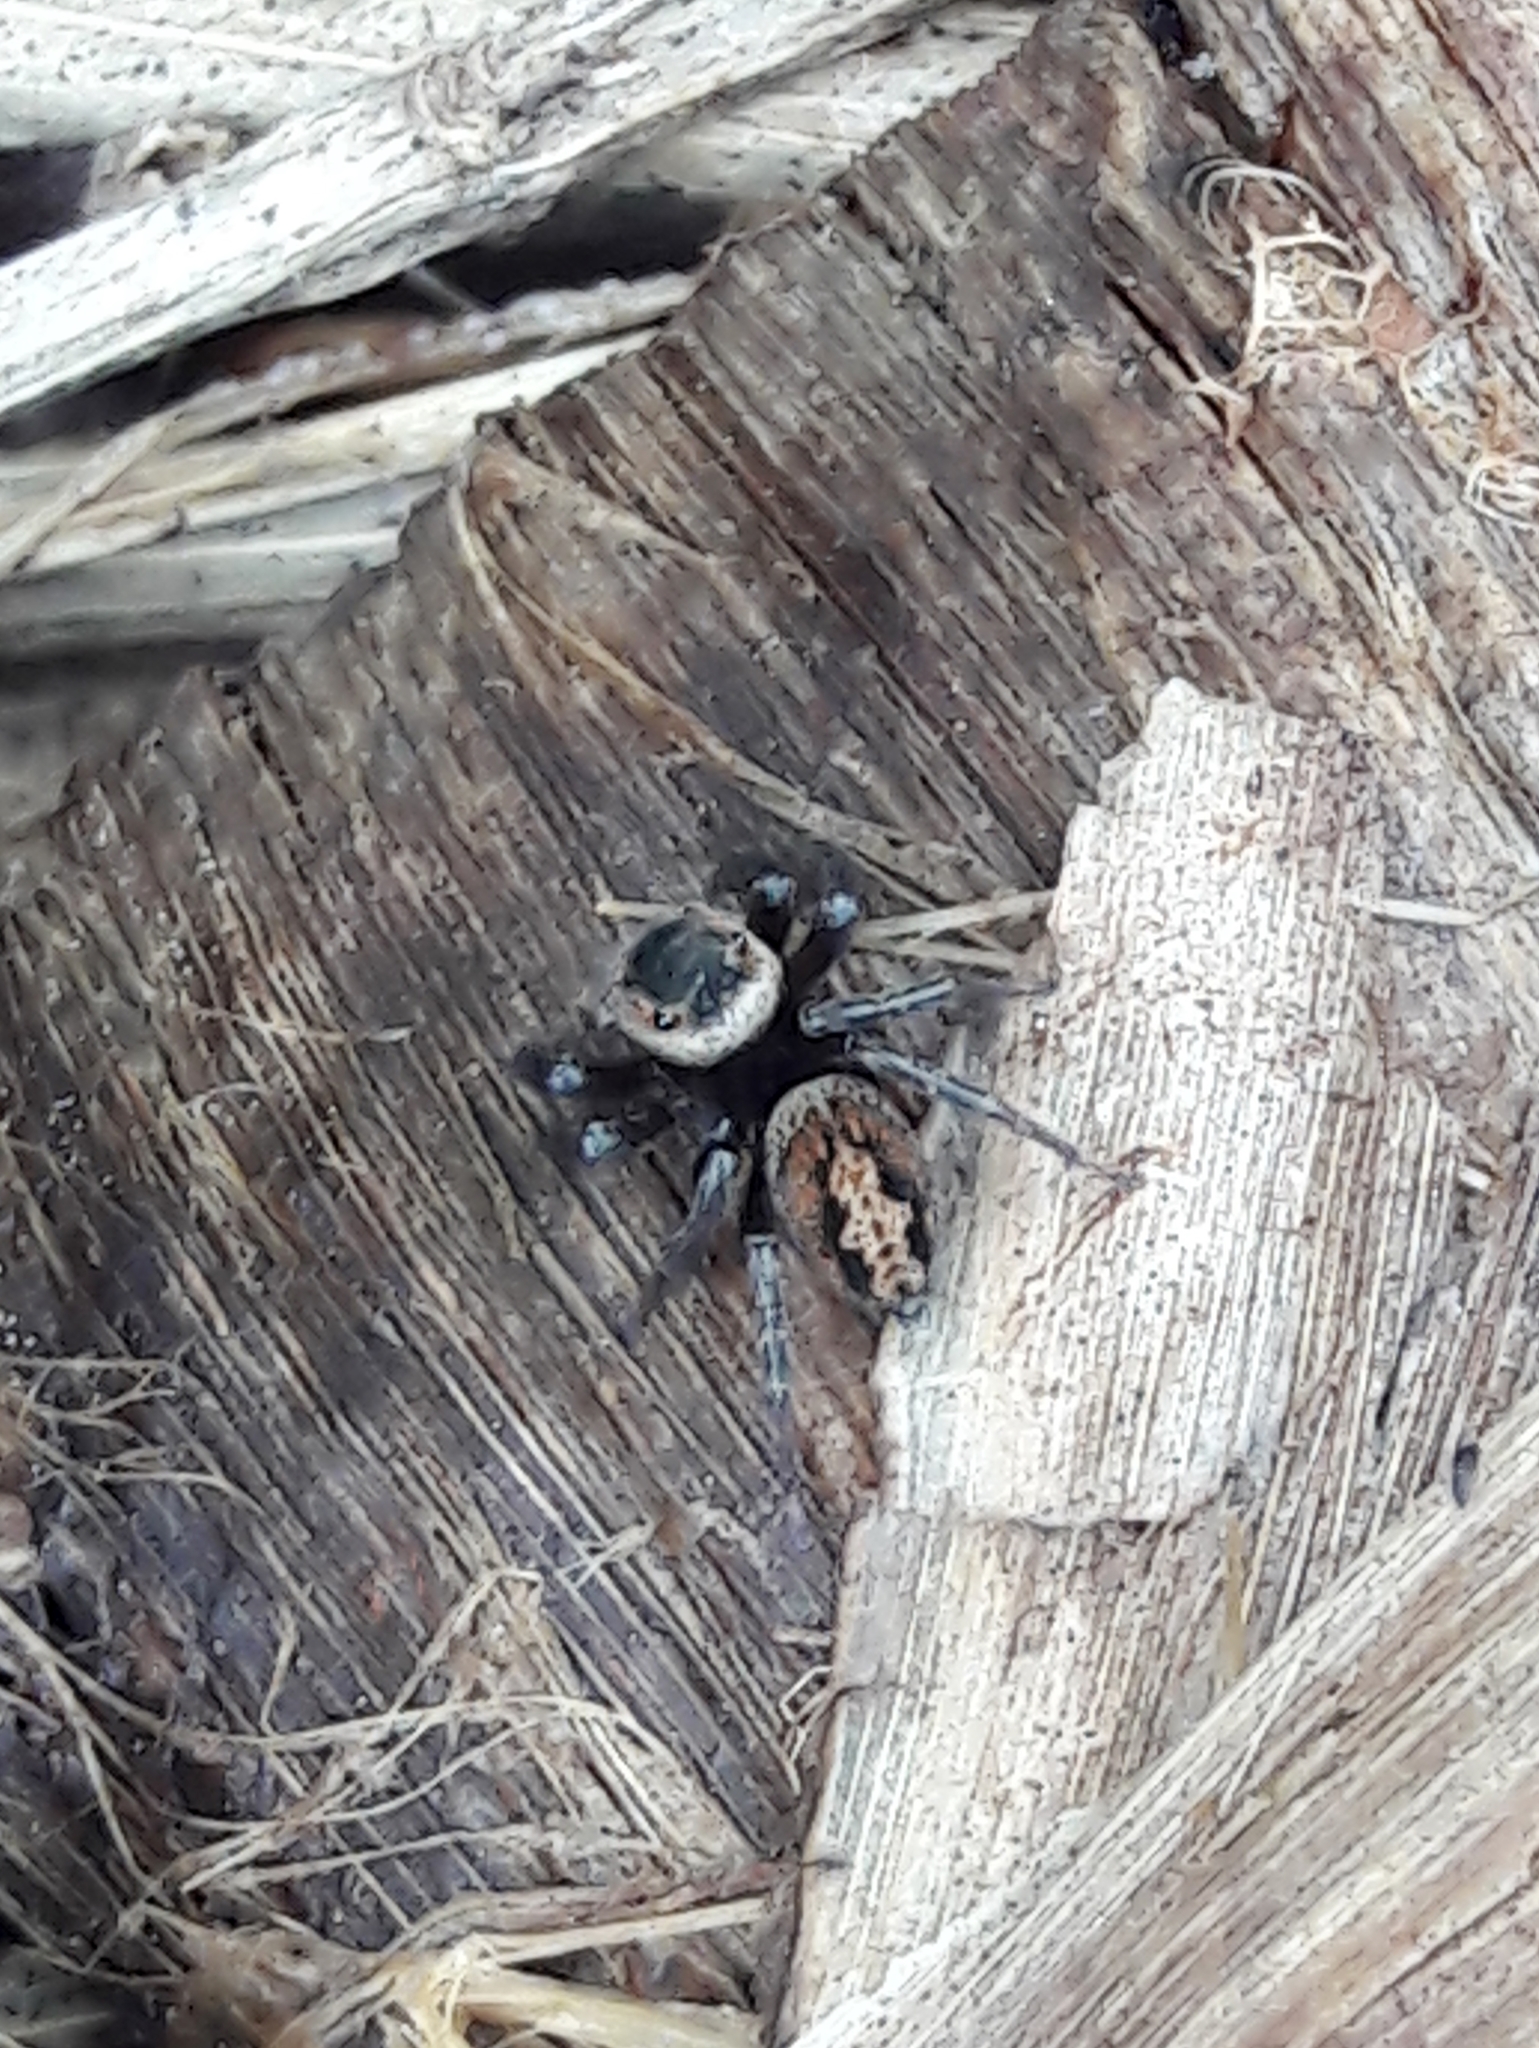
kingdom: Animalia
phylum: Arthropoda
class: Arachnida
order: Araneae
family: Salticidae
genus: Hasarius
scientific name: Hasarius adansoni
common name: Jumping spider
